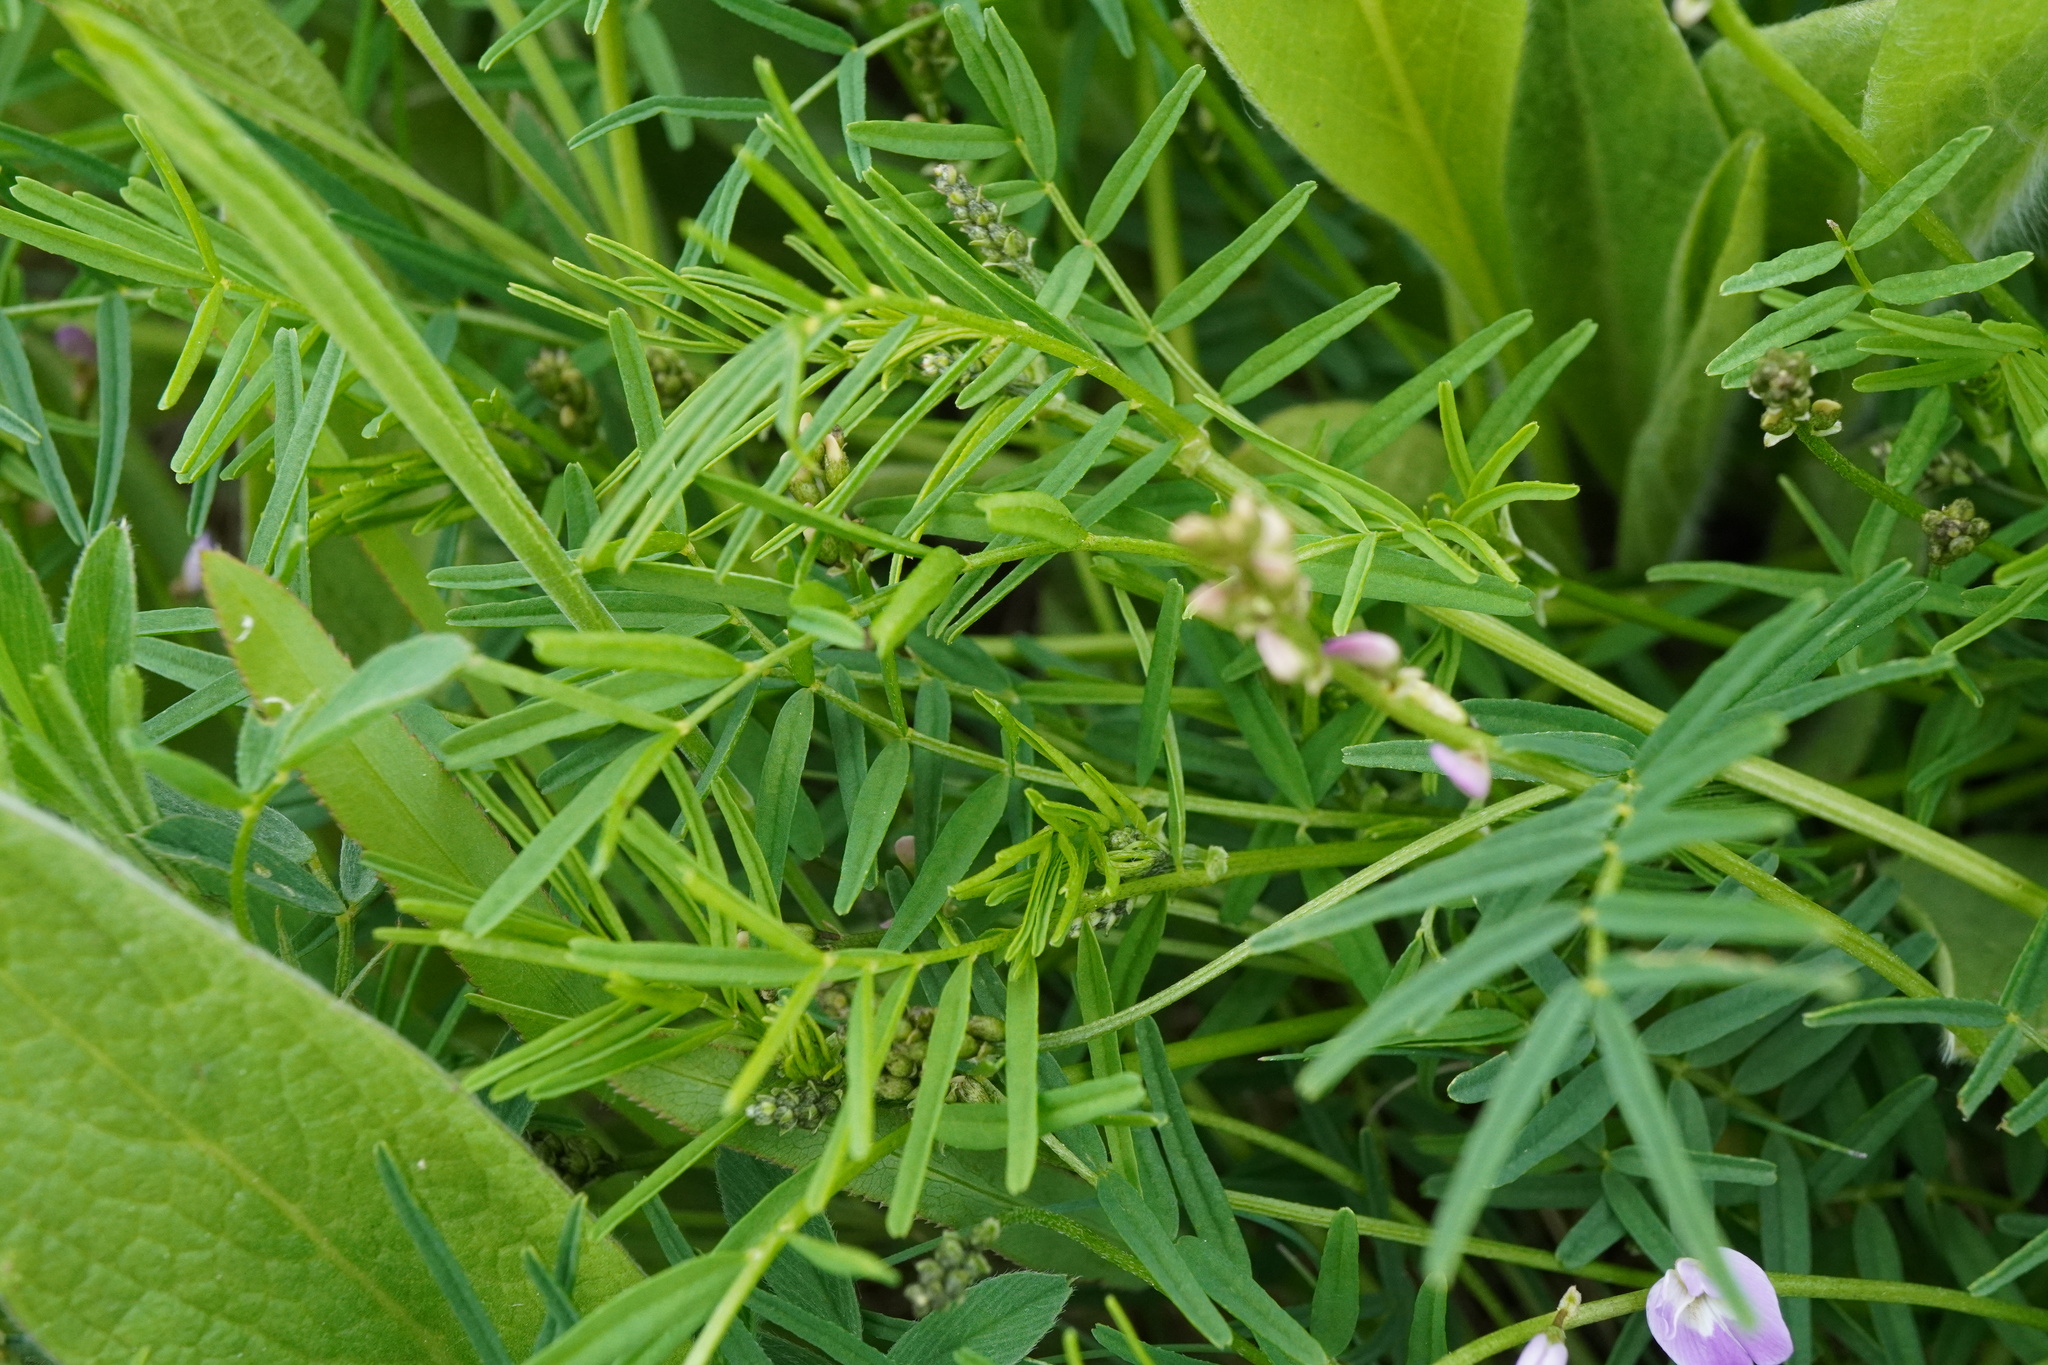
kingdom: Plantae
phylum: Tracheophyta
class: Magnoliopsida
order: Fabales
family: Fabaceae
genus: Astragalus
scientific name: Astragalus austriacus
